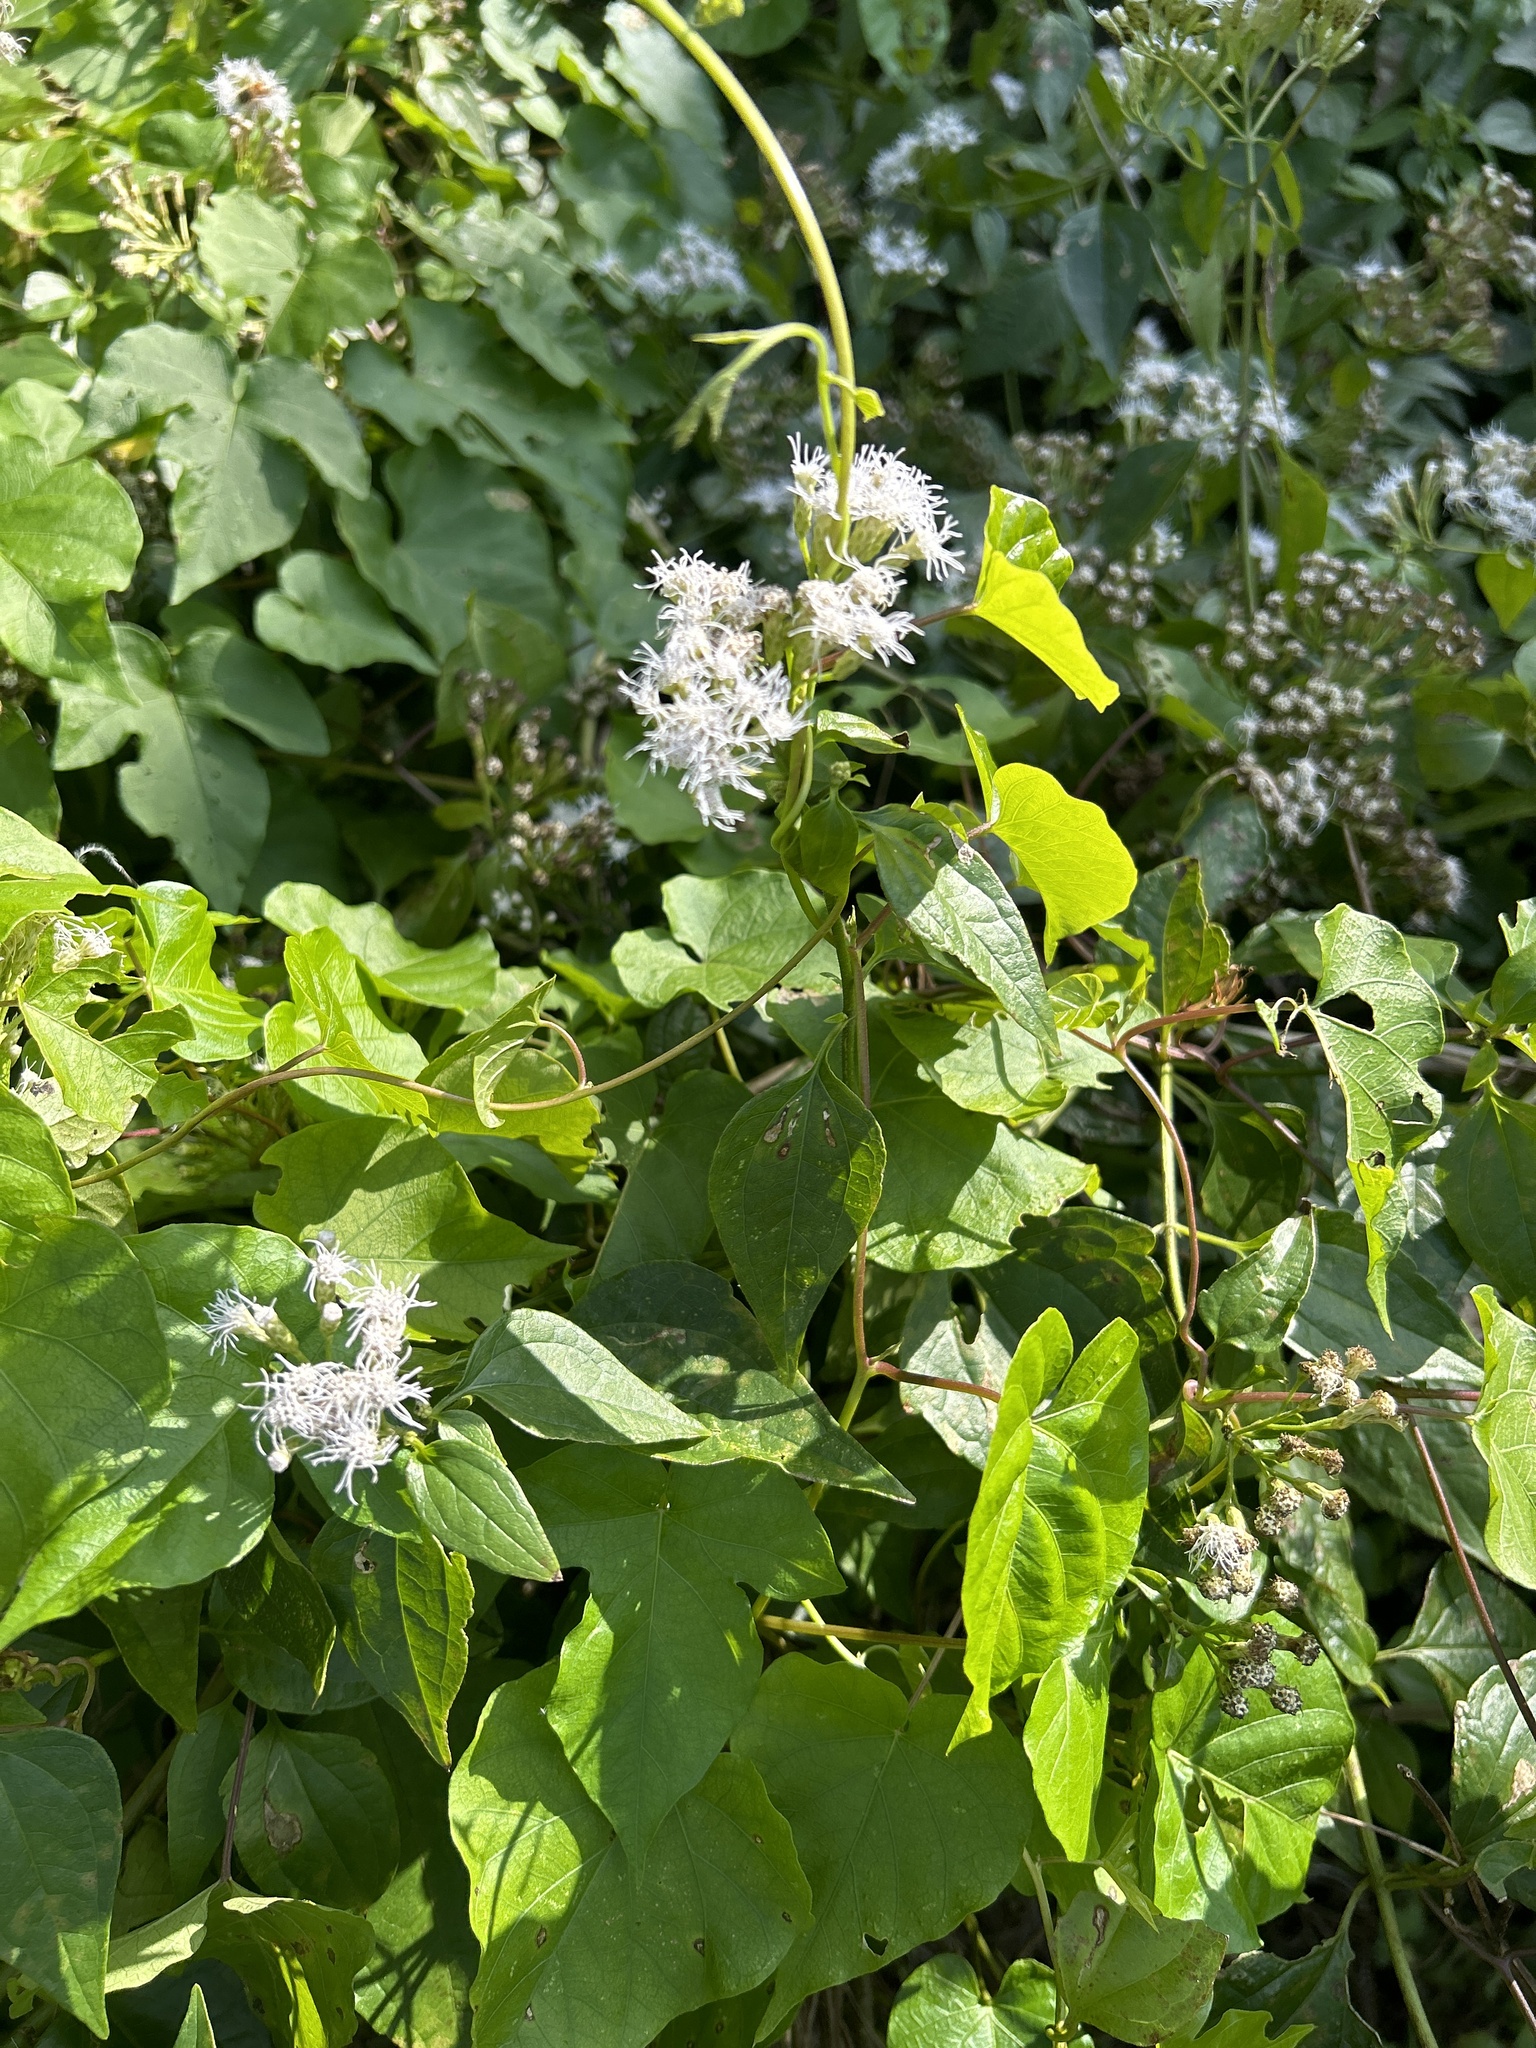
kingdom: Plantae
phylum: Tracheophyta
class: Magnoliopsida
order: Asterales
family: Asteraceae
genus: Chromolaena
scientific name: Chromolaena odorata
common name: Siamweed
